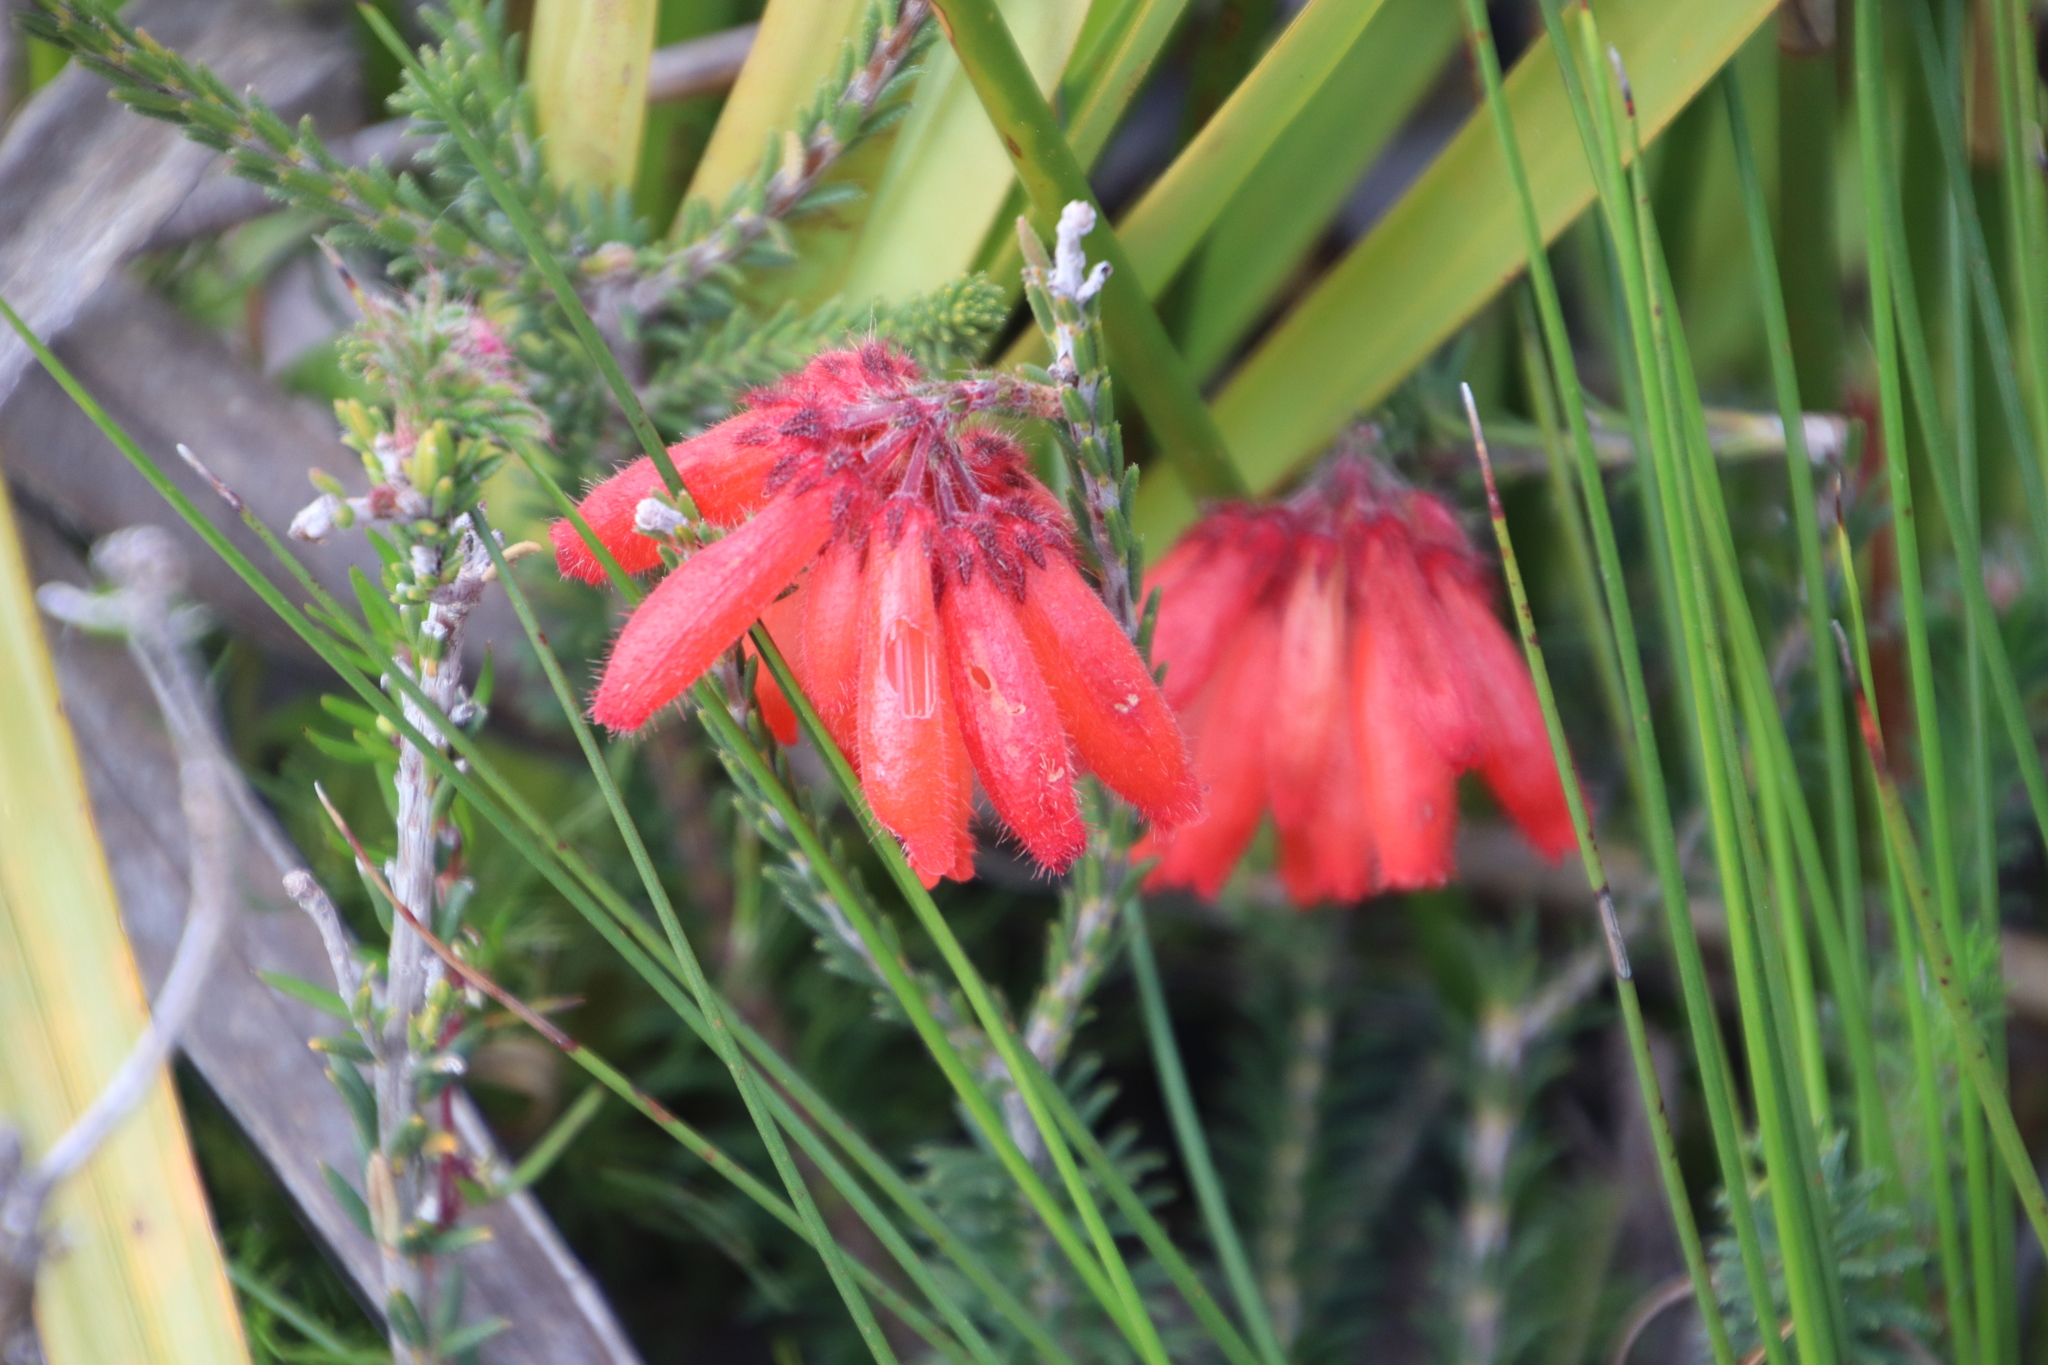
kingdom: Plantae
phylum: Tracheophyta
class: Magnoliopsida
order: Ericales
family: Ericaceae
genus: Erica
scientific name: Erica cerinthoides
